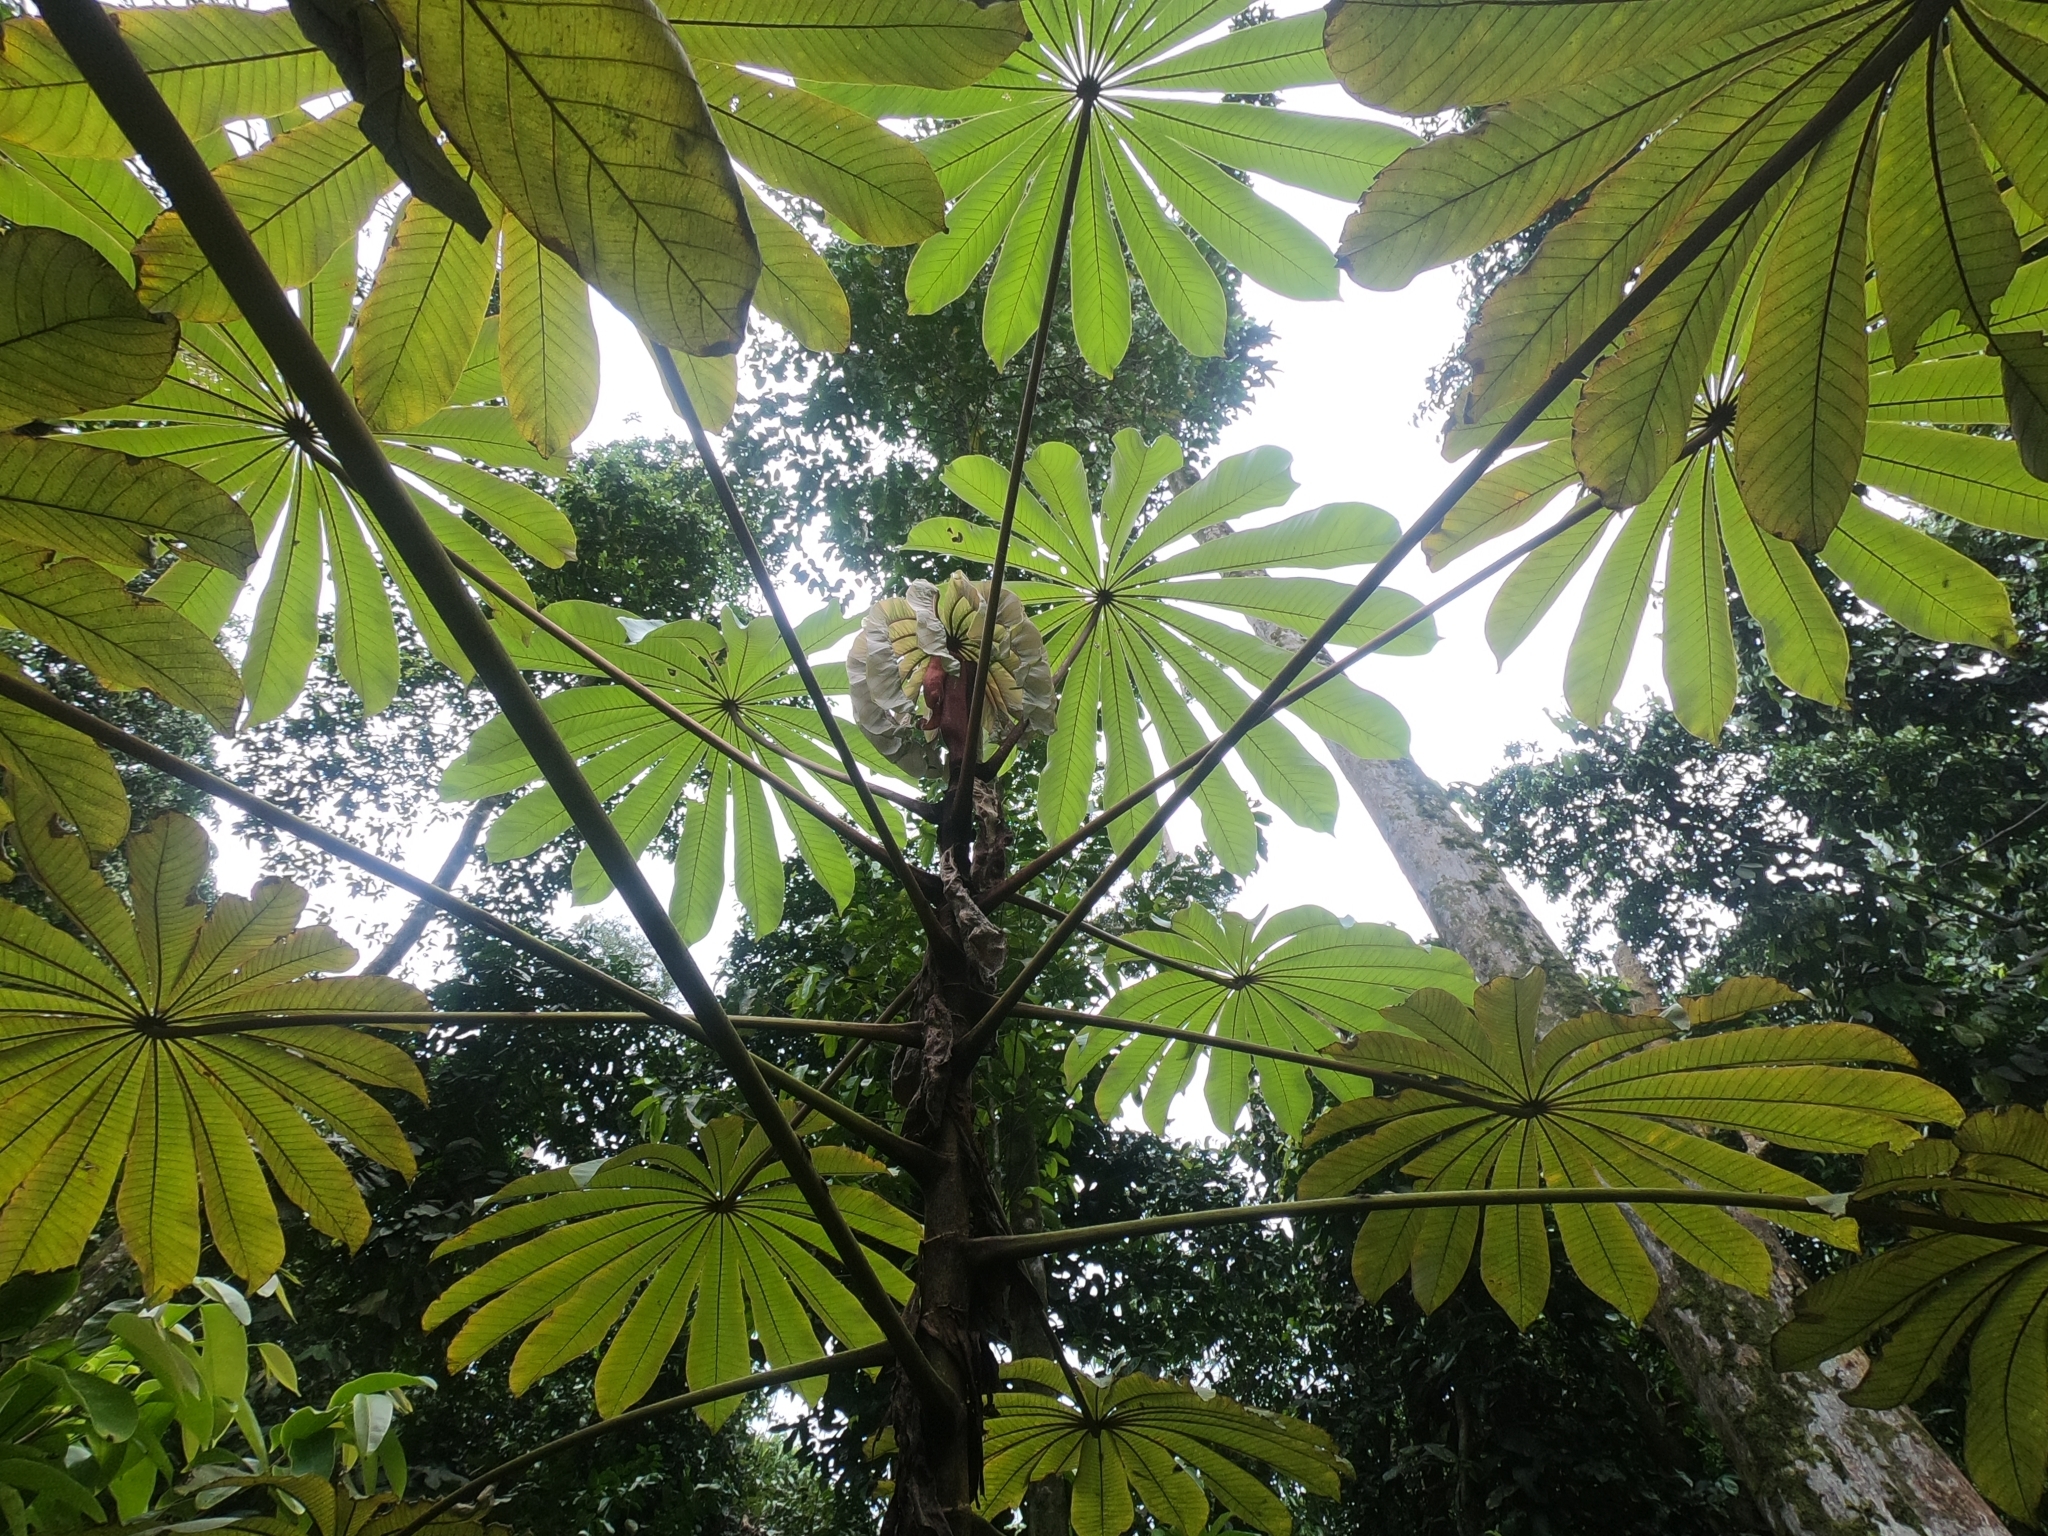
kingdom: Plantae
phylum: Tracheophyta
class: Magnoliopsida
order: Rosales
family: Urticaceae
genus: Musanga
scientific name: Musanga cecropioides
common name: African corkwood
